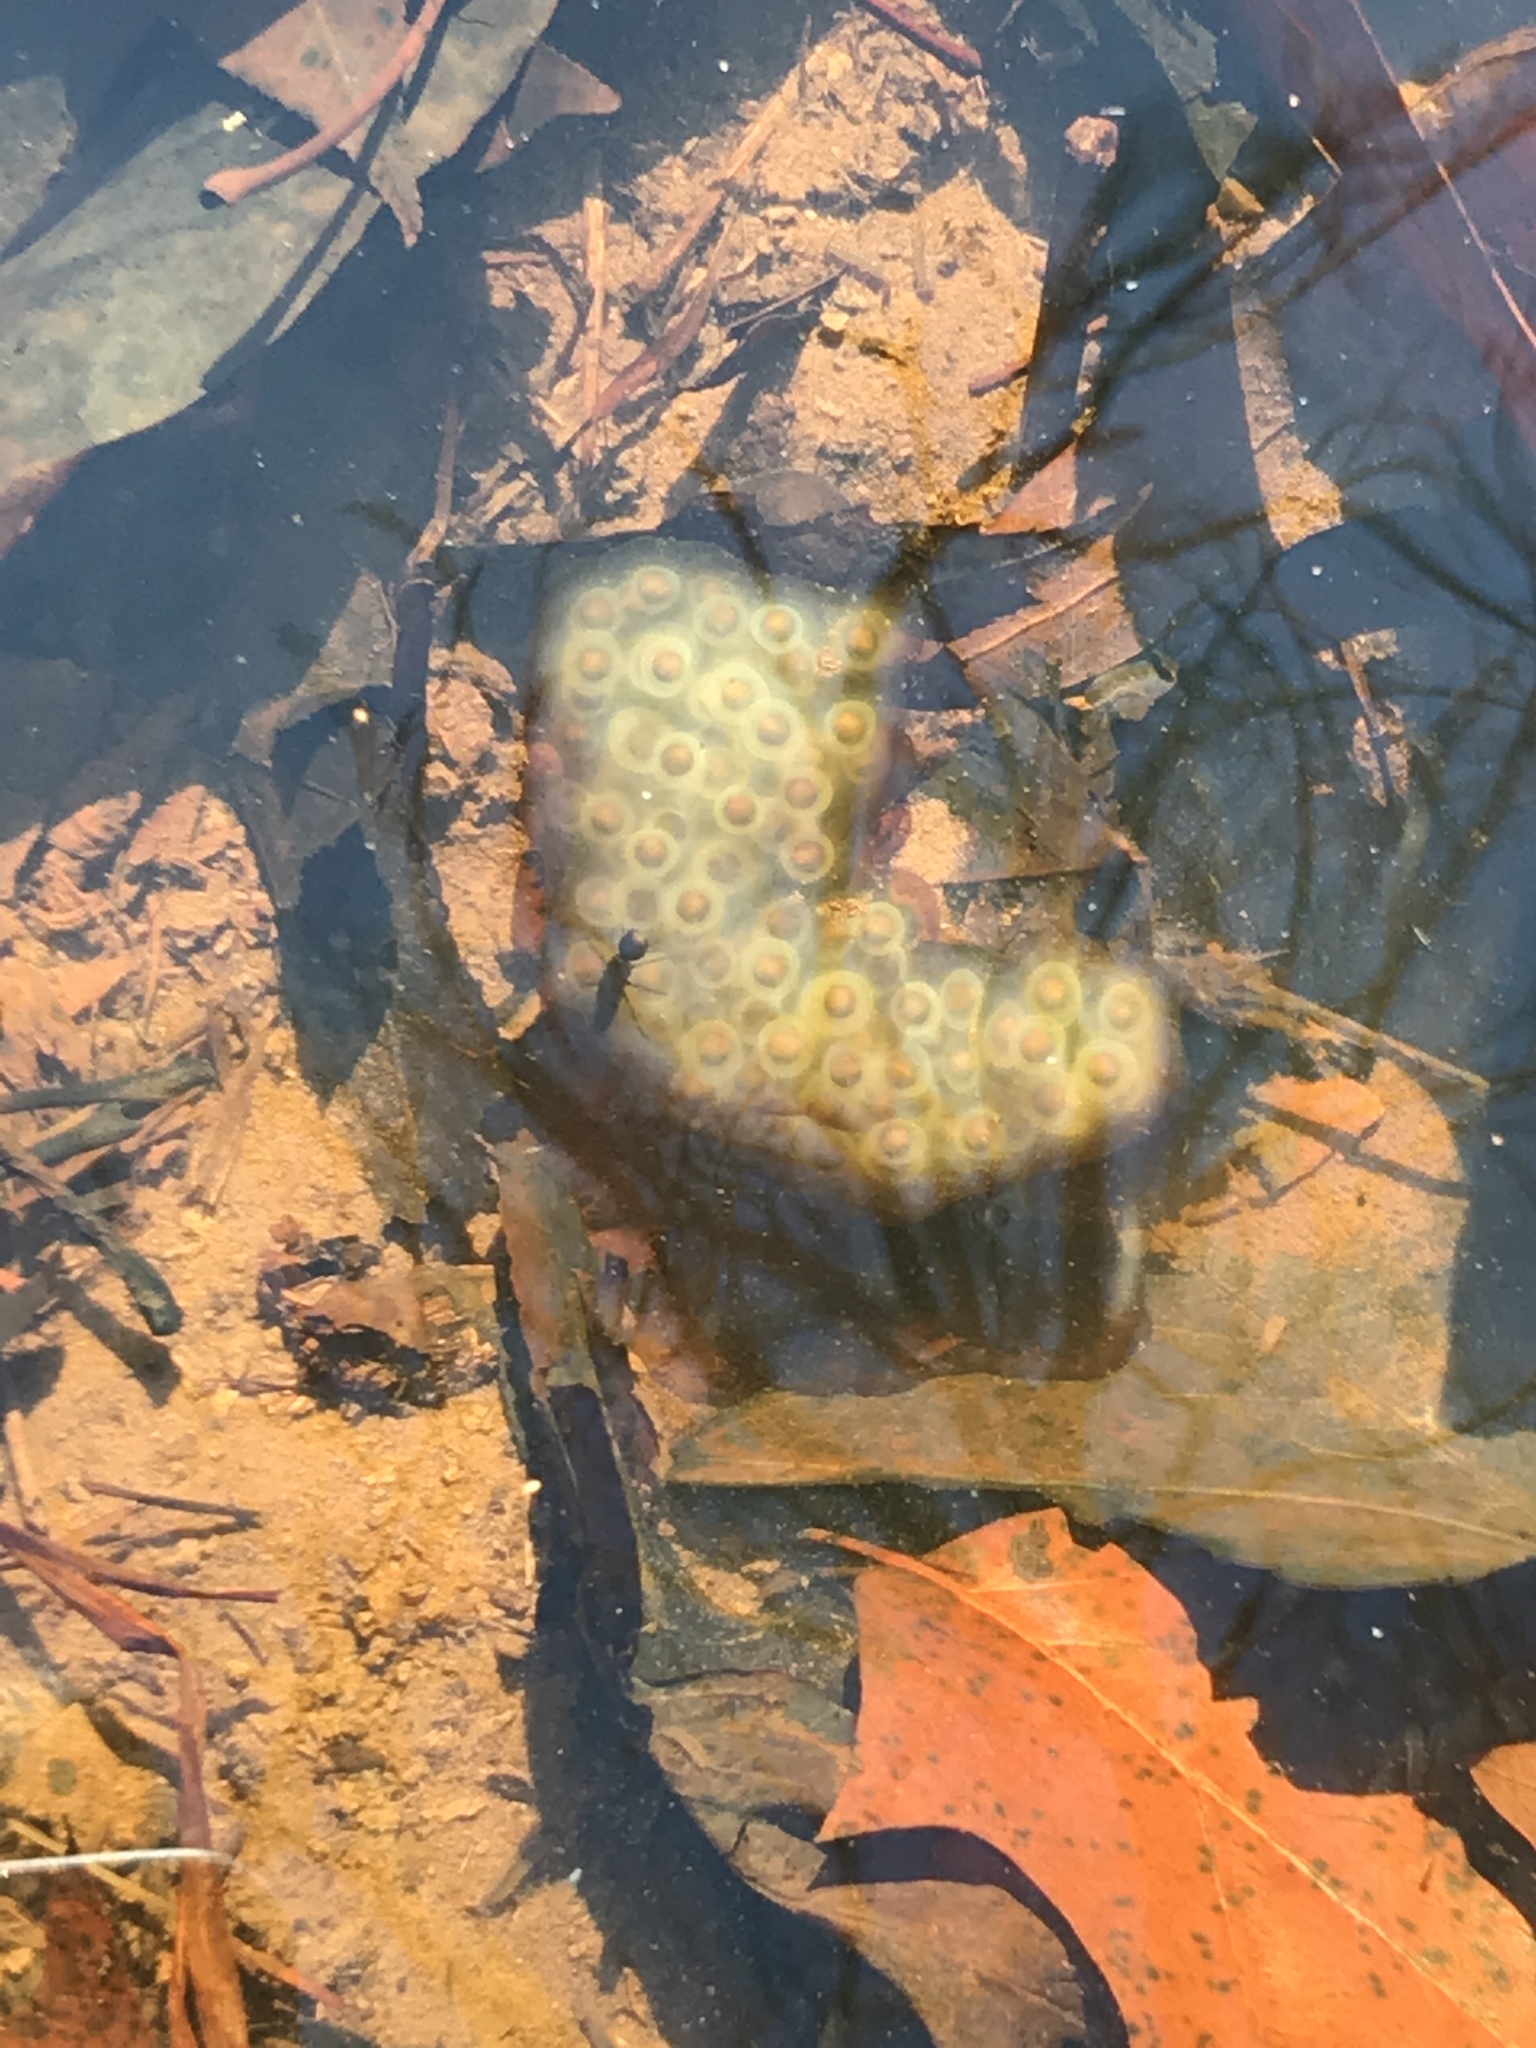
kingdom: Animalia
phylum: Chordata
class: Amphibia
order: Caudata
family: Ambystomatidae
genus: Ambystoma
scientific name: Ambystoma maculatum
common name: Spotted salamander
